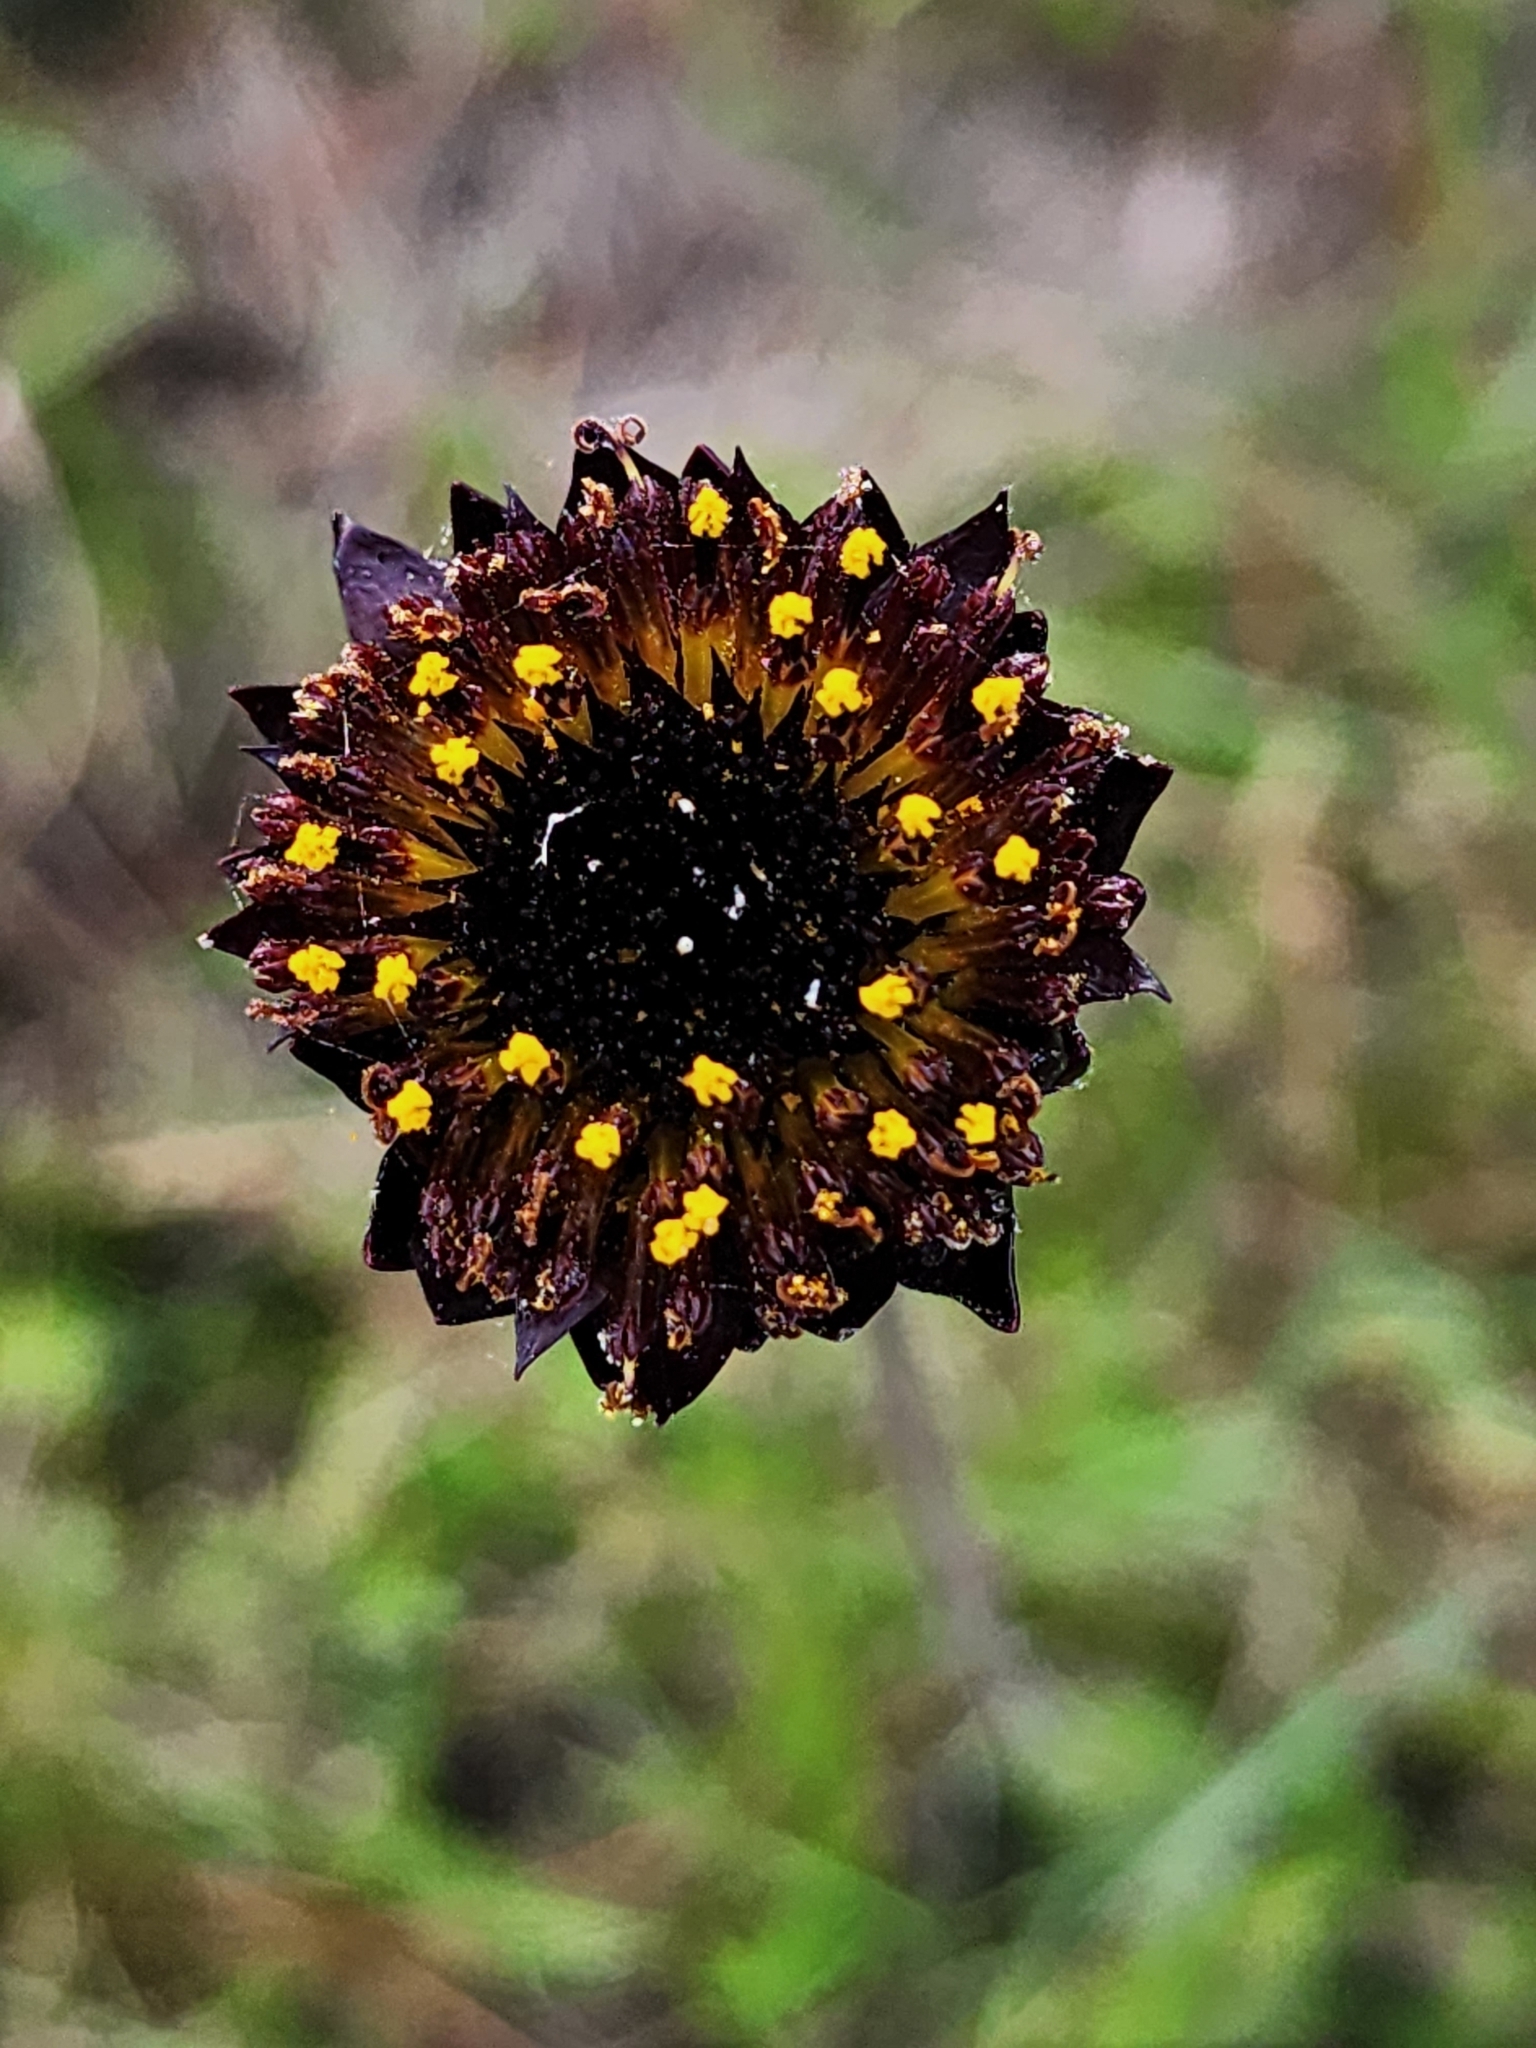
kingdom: Plantae
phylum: Tracheophyta
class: Magnoliopsida
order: Asterales
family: Asteraceae
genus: Helianthus
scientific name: Helianthus radula
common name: Pineland sunflower
